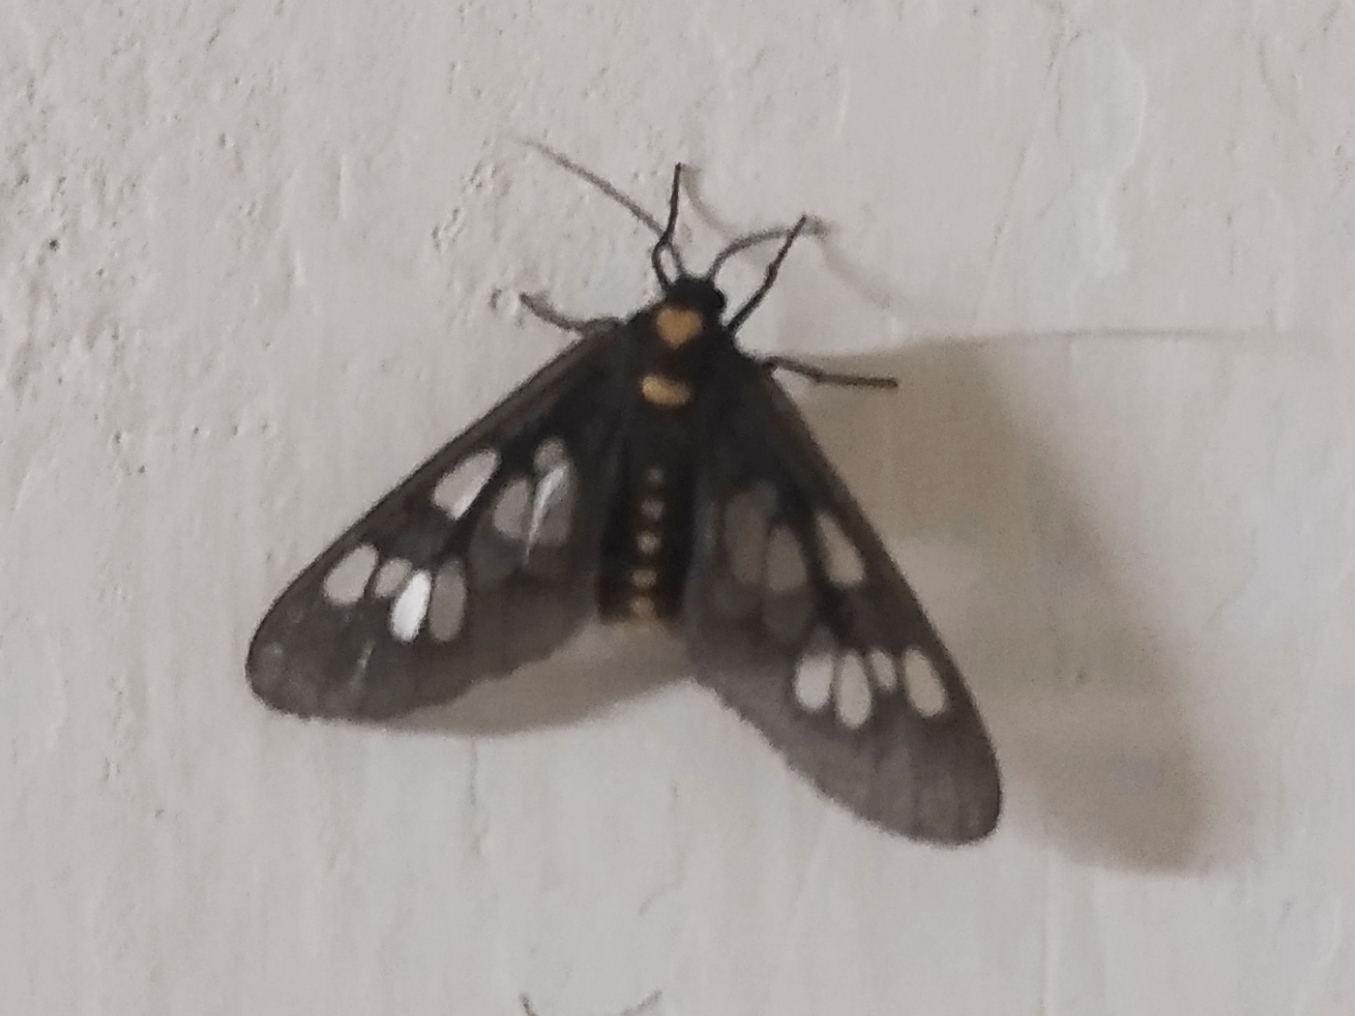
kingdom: Animalia
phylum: Arthropoda
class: Insecta
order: Lepidoptera
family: Erebidae
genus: Eressa
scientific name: Eressa confinis
